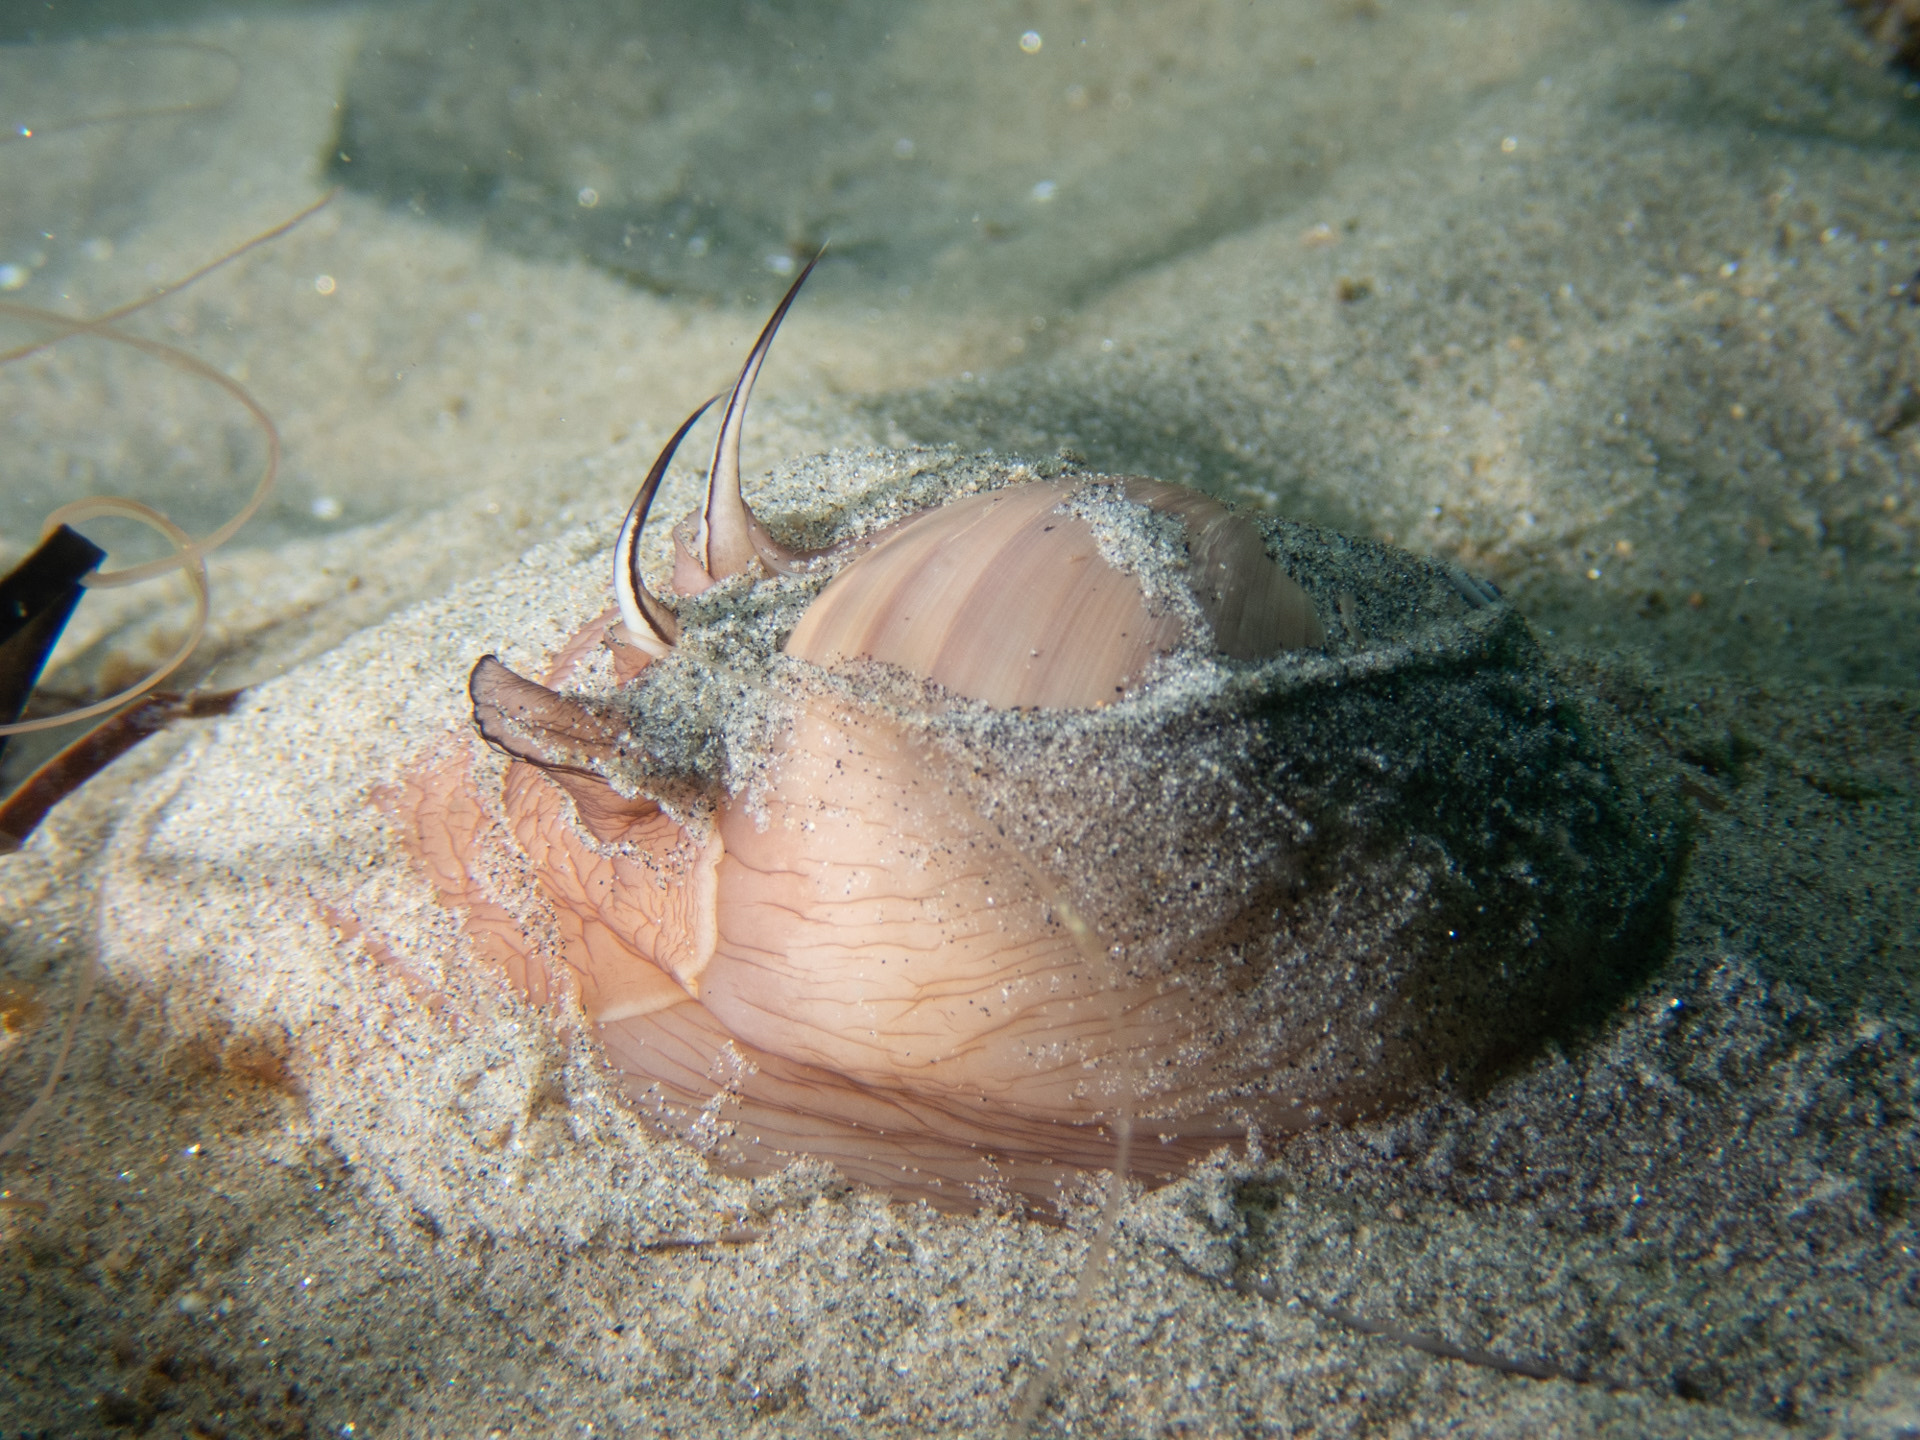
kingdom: Animalia
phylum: Mollusca
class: Gastropoda
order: Littorinimorpha
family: Naticidae
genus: Neverita
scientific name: Neverita lewisii
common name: Lewis' moonsnail
